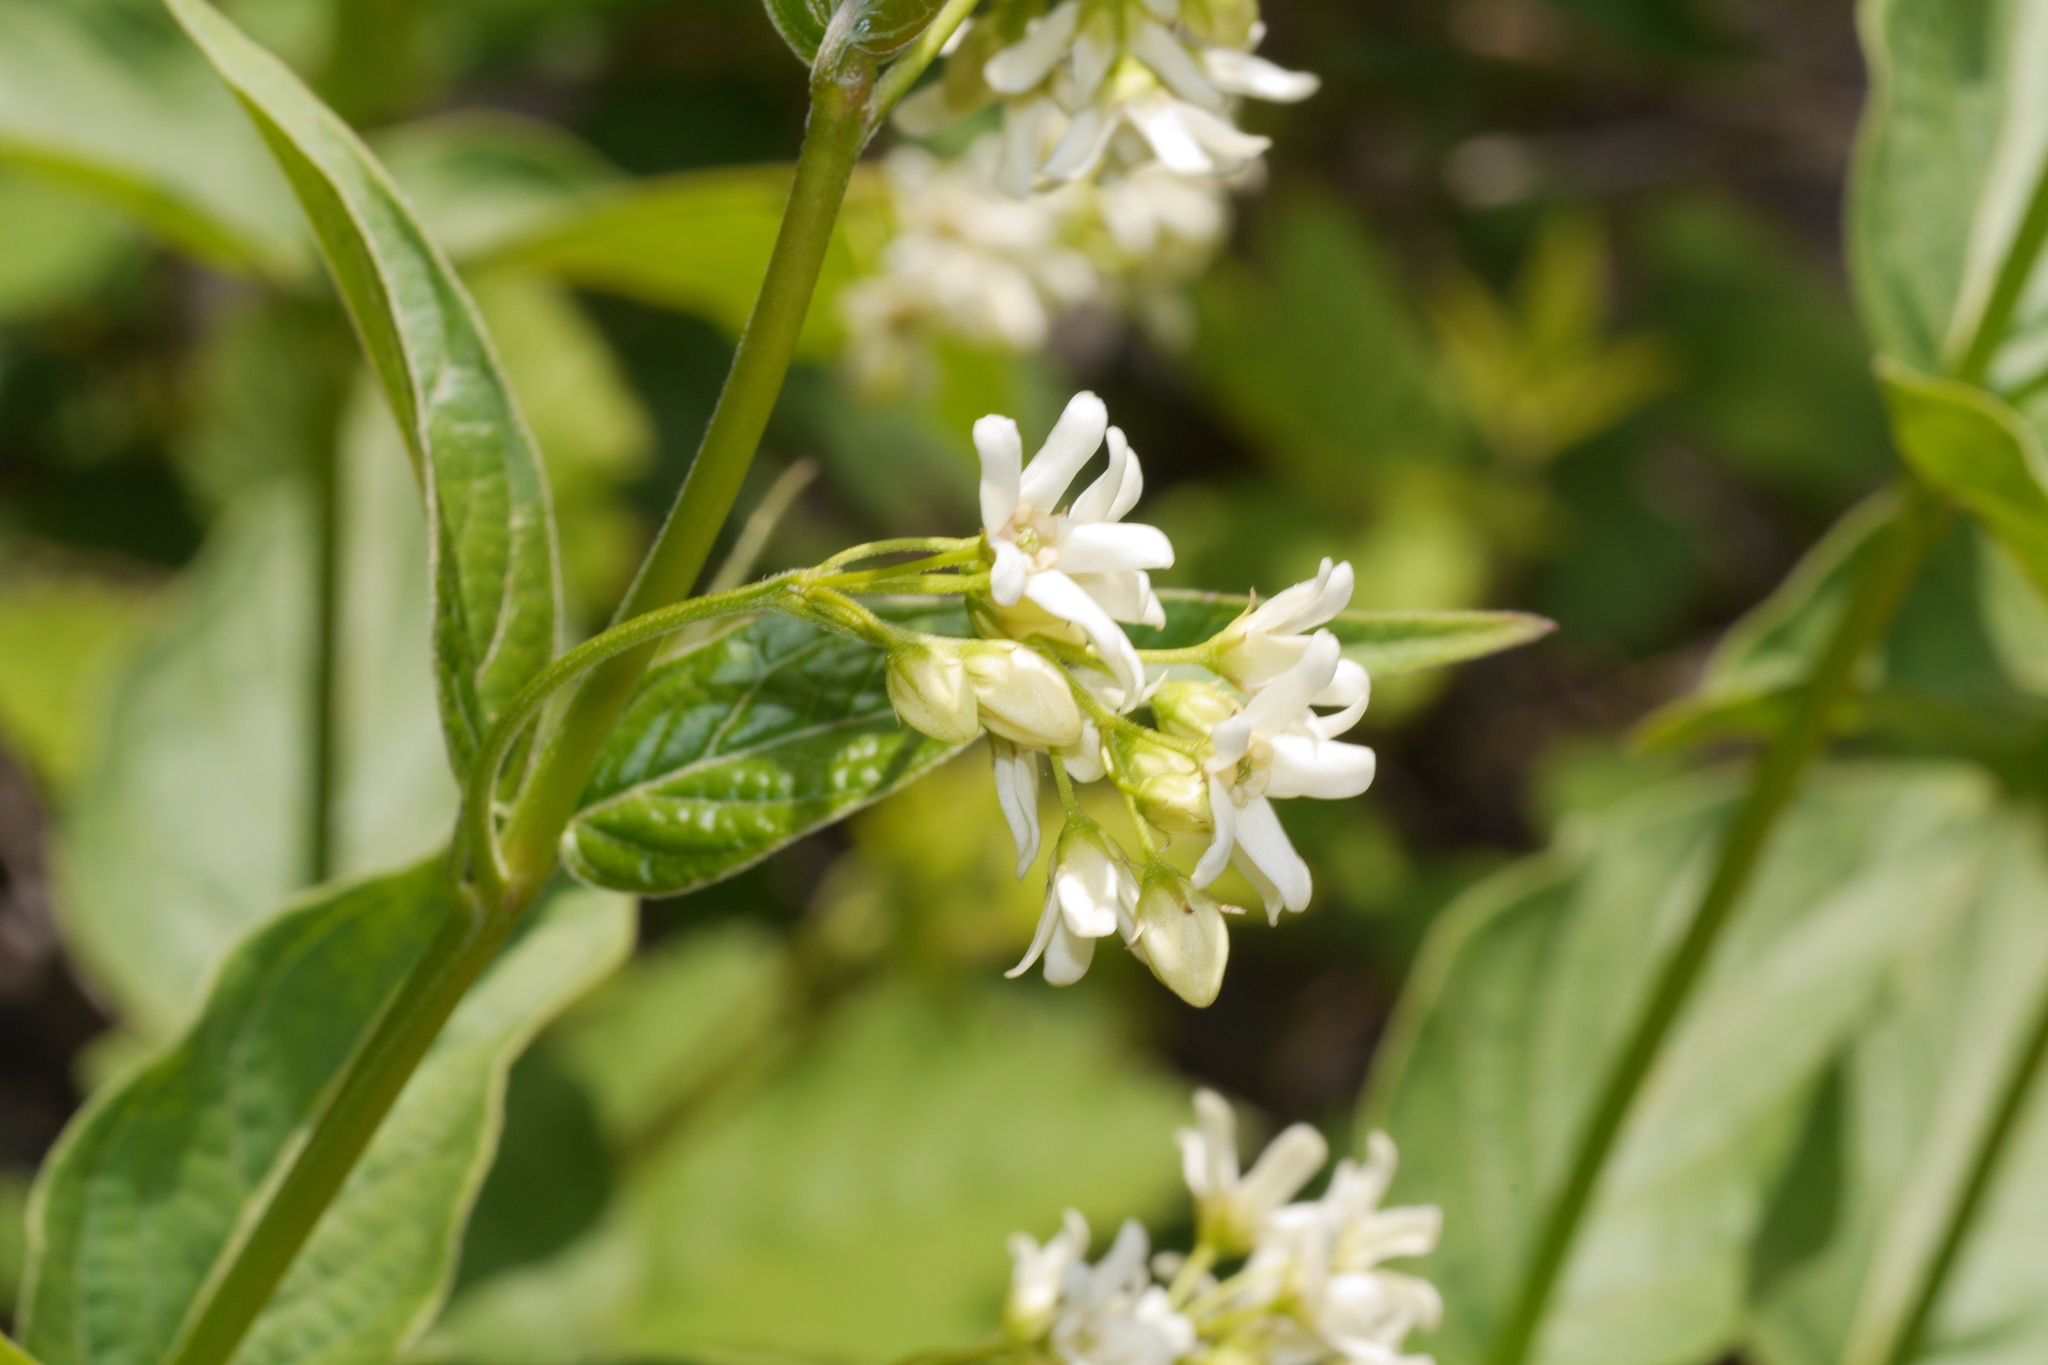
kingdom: Plantae
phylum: Tracheophyta
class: Magnoliopsida
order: Gentianales
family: Apocynaceae
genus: Vincetoxicum
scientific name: Vincetoxicum hirundinaria
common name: White swallowwort
